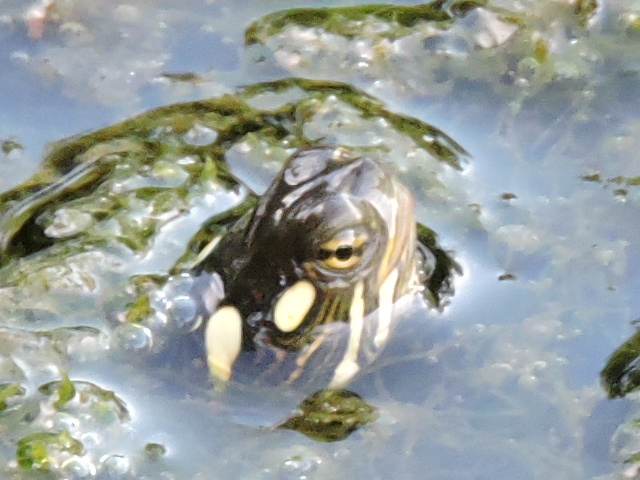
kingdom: Animalia
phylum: Chordata
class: Testudines
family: Emydidae
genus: Chrysemys
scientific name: Chrysemys picta
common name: Painted turtle
